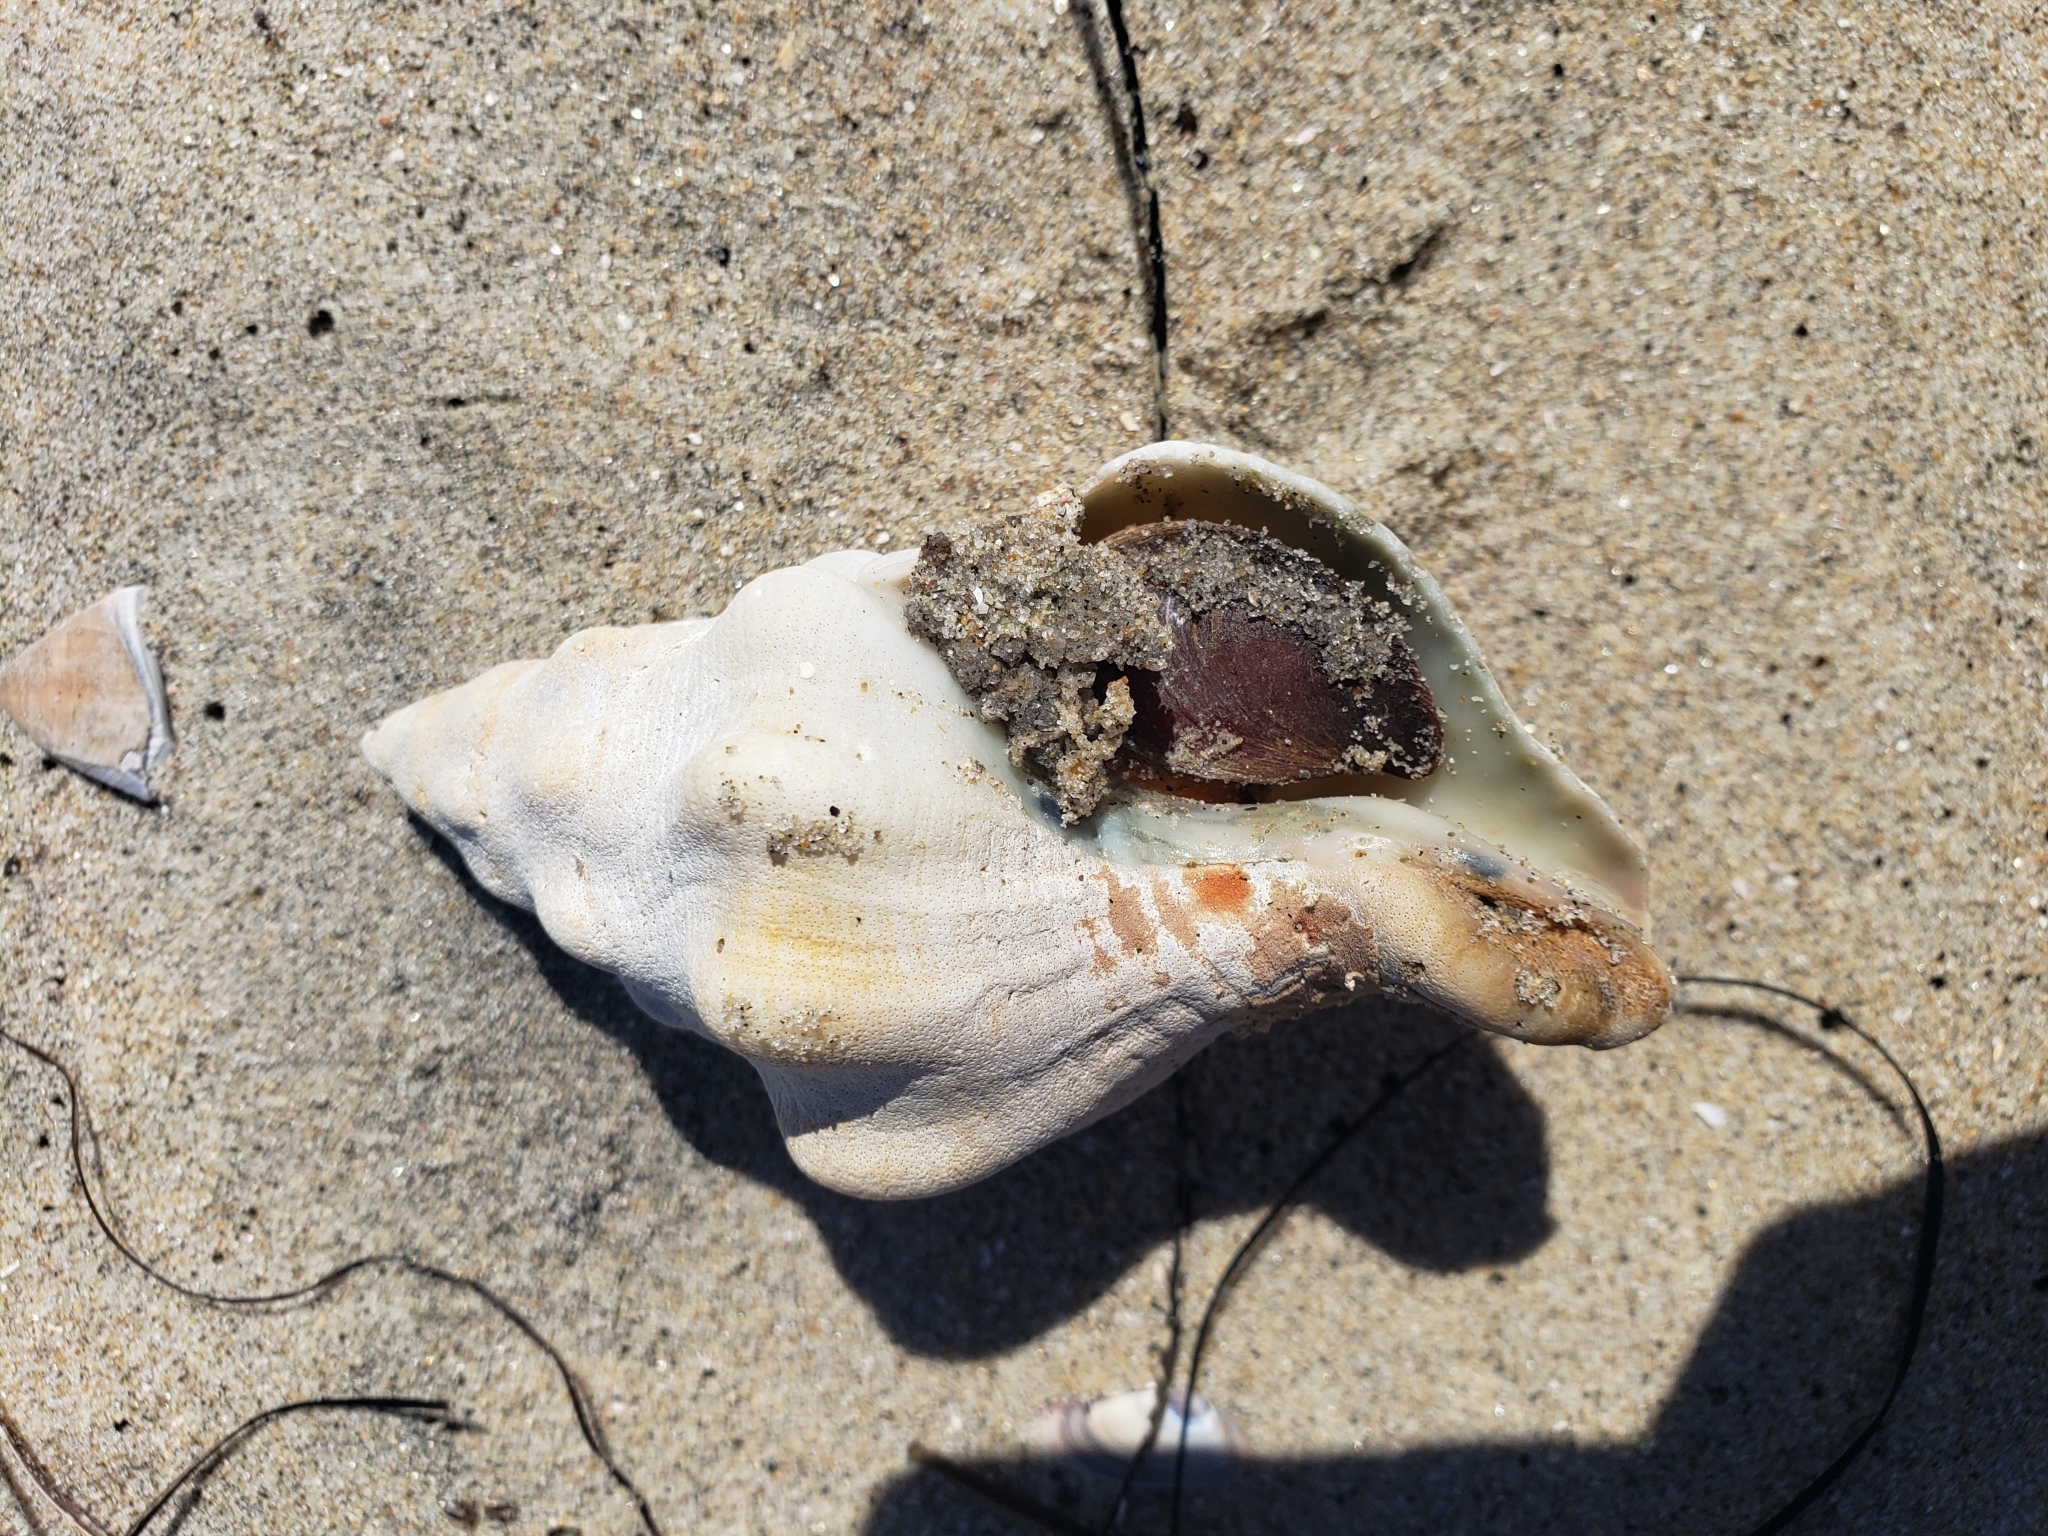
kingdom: Animalia
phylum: Mollusca
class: Gastropoda
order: Neogastropoda
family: Austrosiphonidae
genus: Kelletia
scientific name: Kelletia kelletii
